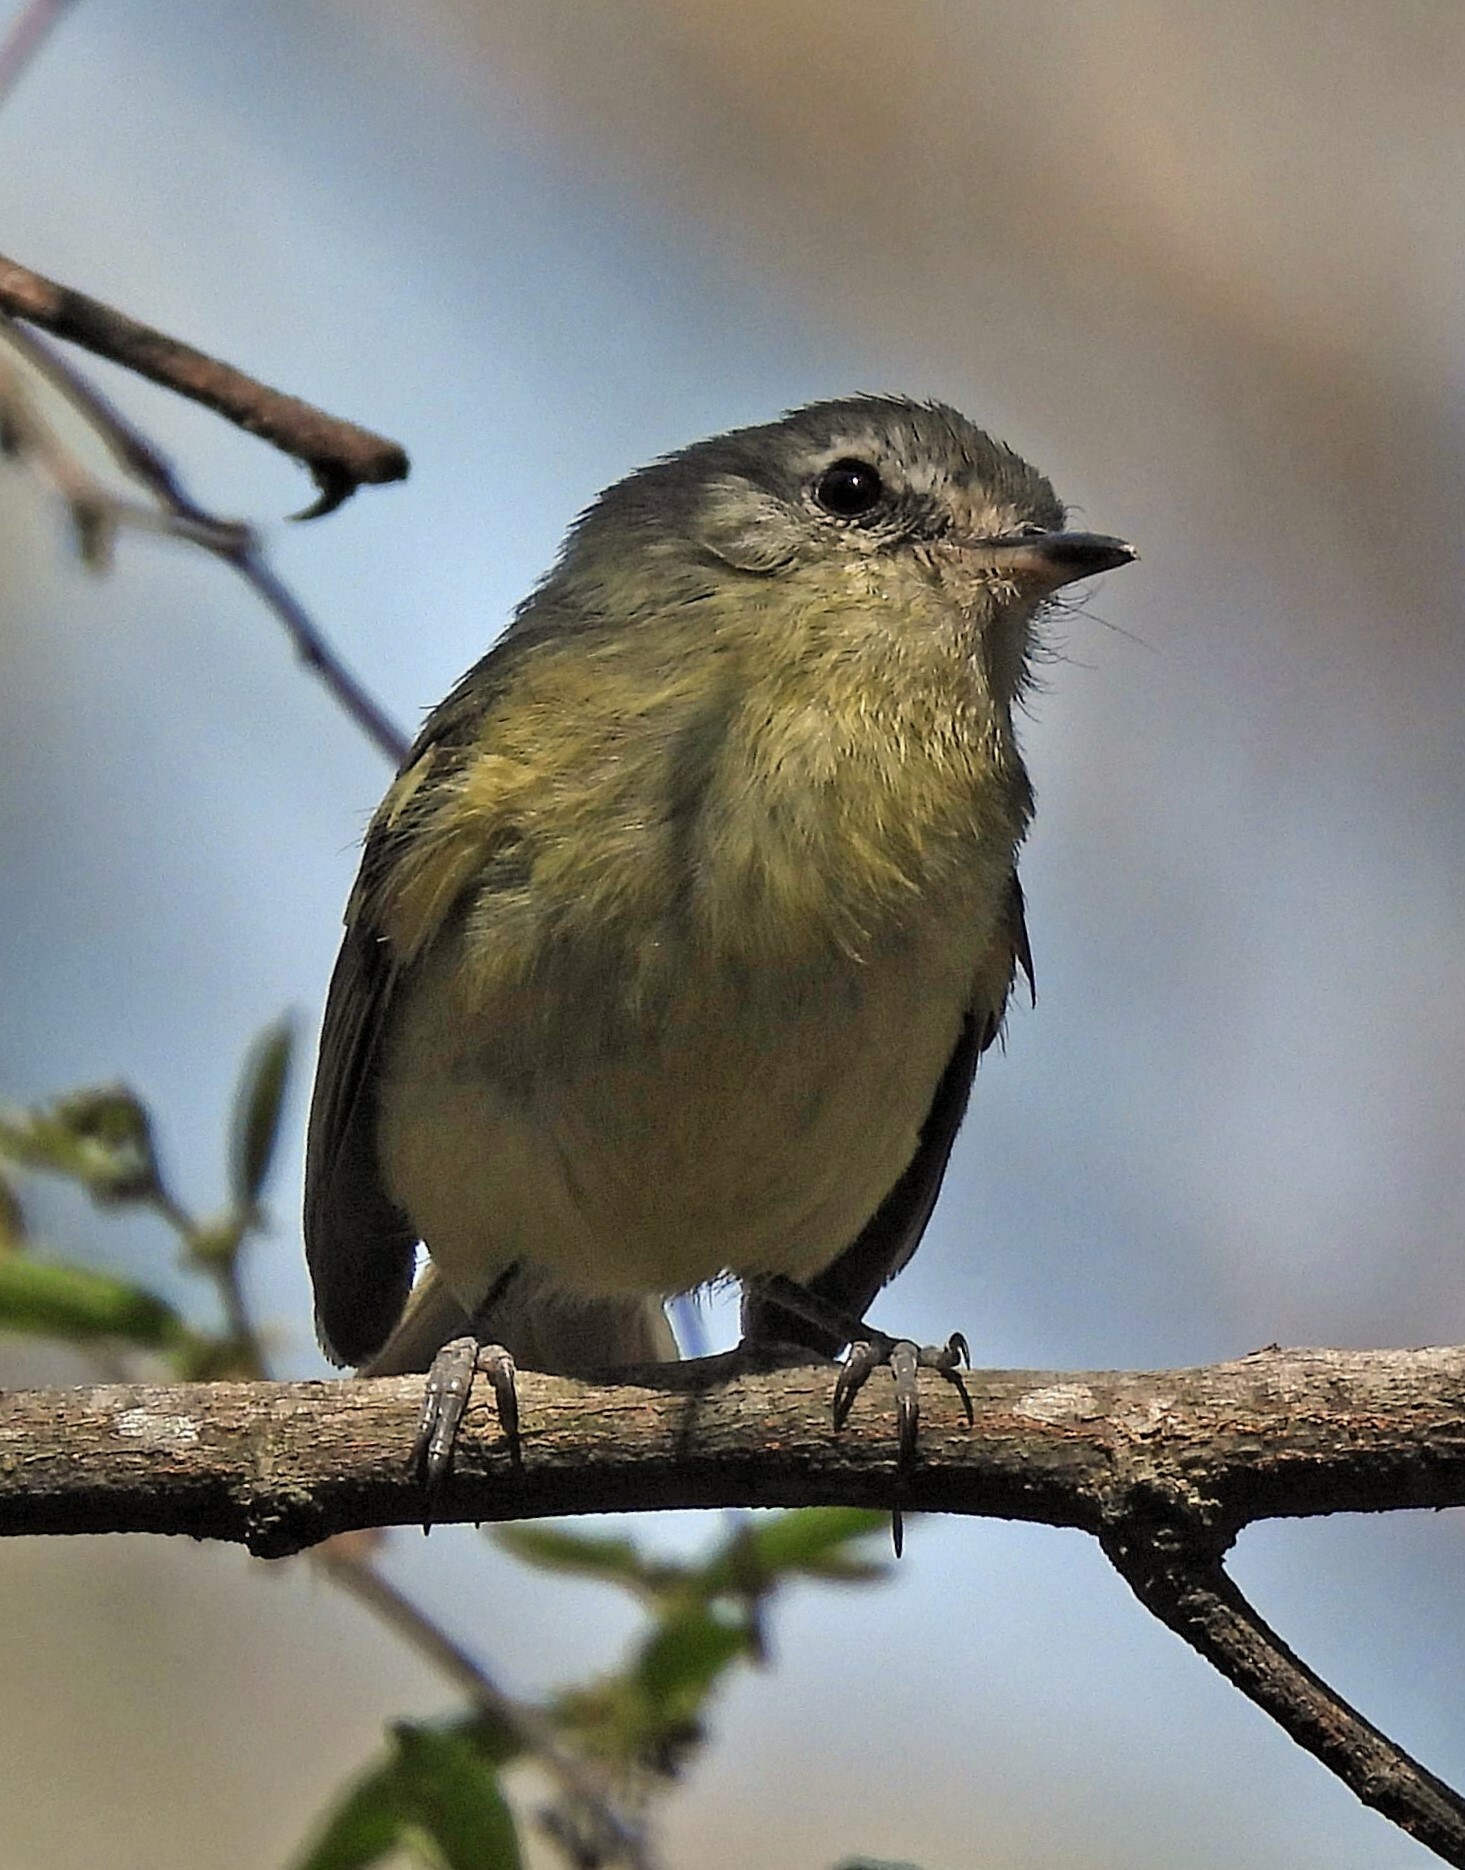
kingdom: Animalia
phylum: Chordata
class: Aves
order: Passeriformes
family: Tyrannidae
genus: Phylloscartes
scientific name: Phylloscartes ventralis
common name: Mottle-cheeked tyrannulet
